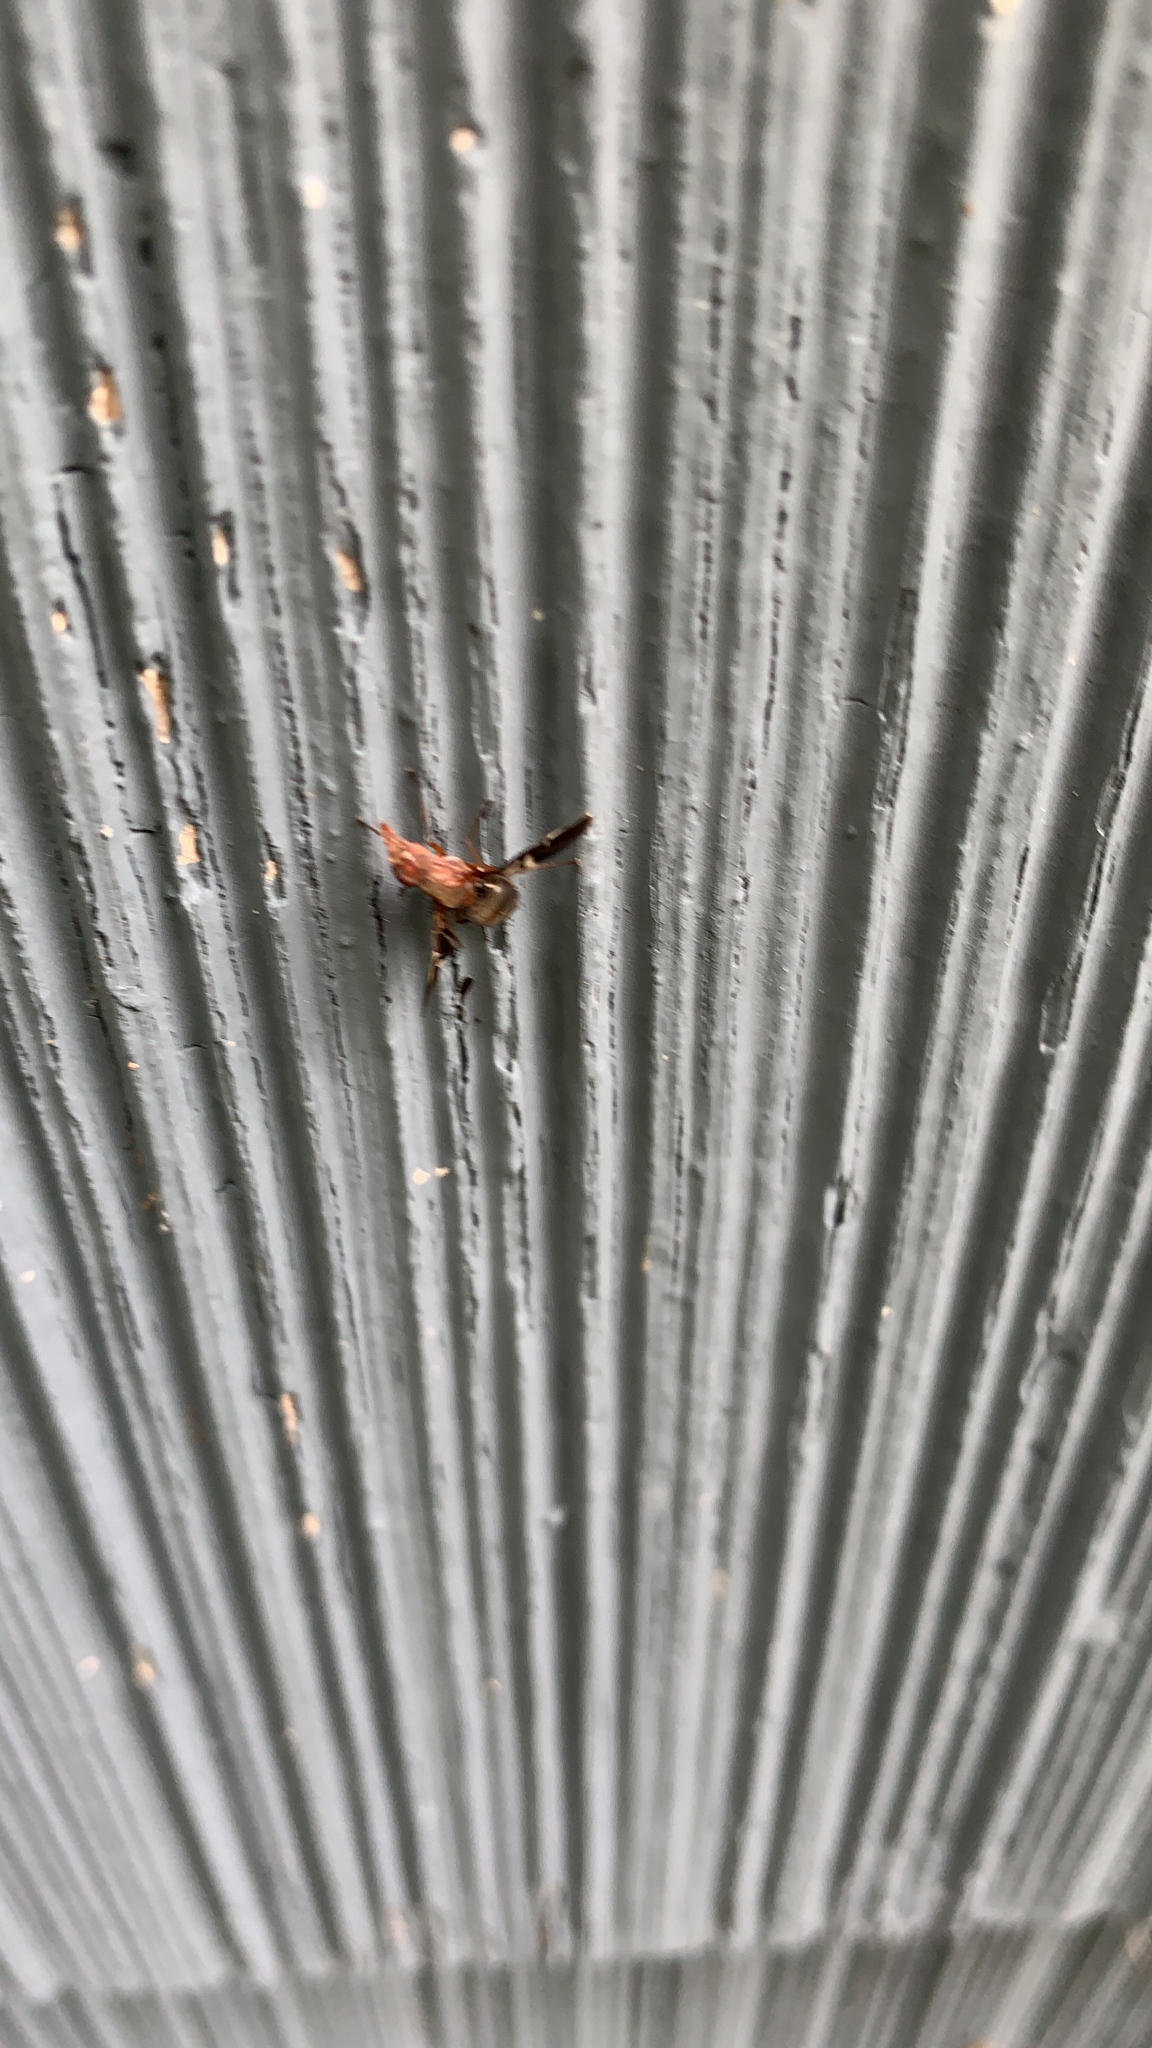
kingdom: Animalia
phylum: Arthropoda
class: Insecta
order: Diptera
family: Ulidiidae
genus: Delphinia
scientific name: Delphinia picta
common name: Common picture-winged fly
